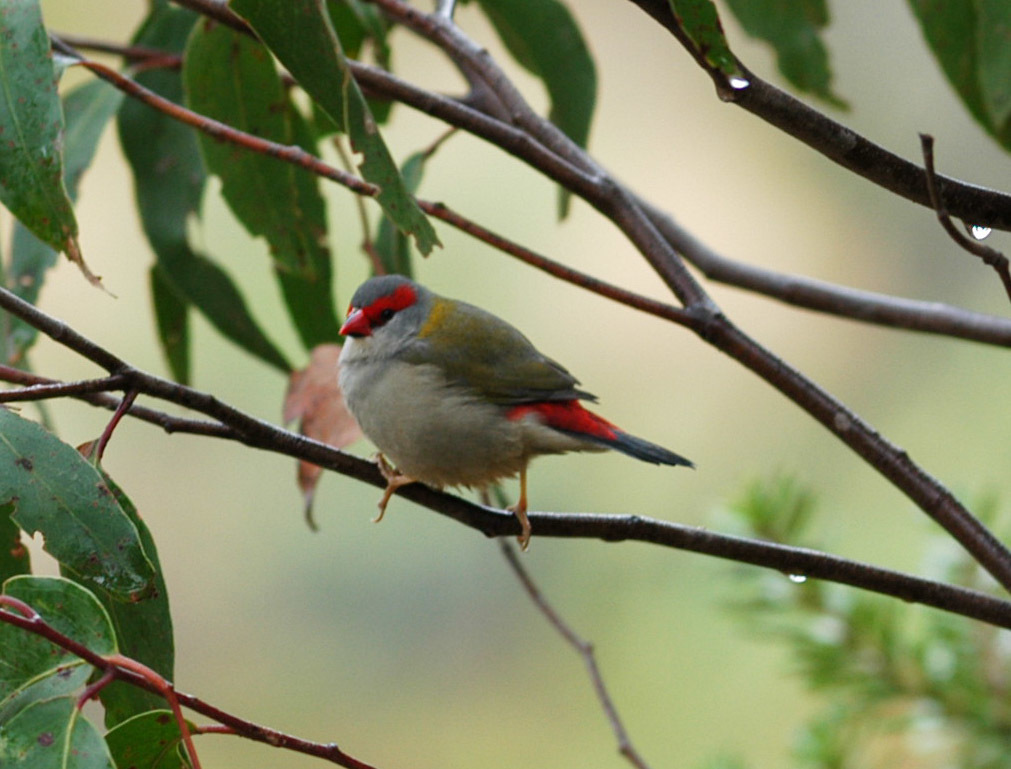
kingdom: Animalia
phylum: Chordata
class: Aves
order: Passeriformes
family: Estrildidae
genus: Neochmia
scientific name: Neochmia temporalis
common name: Red-browed finch
